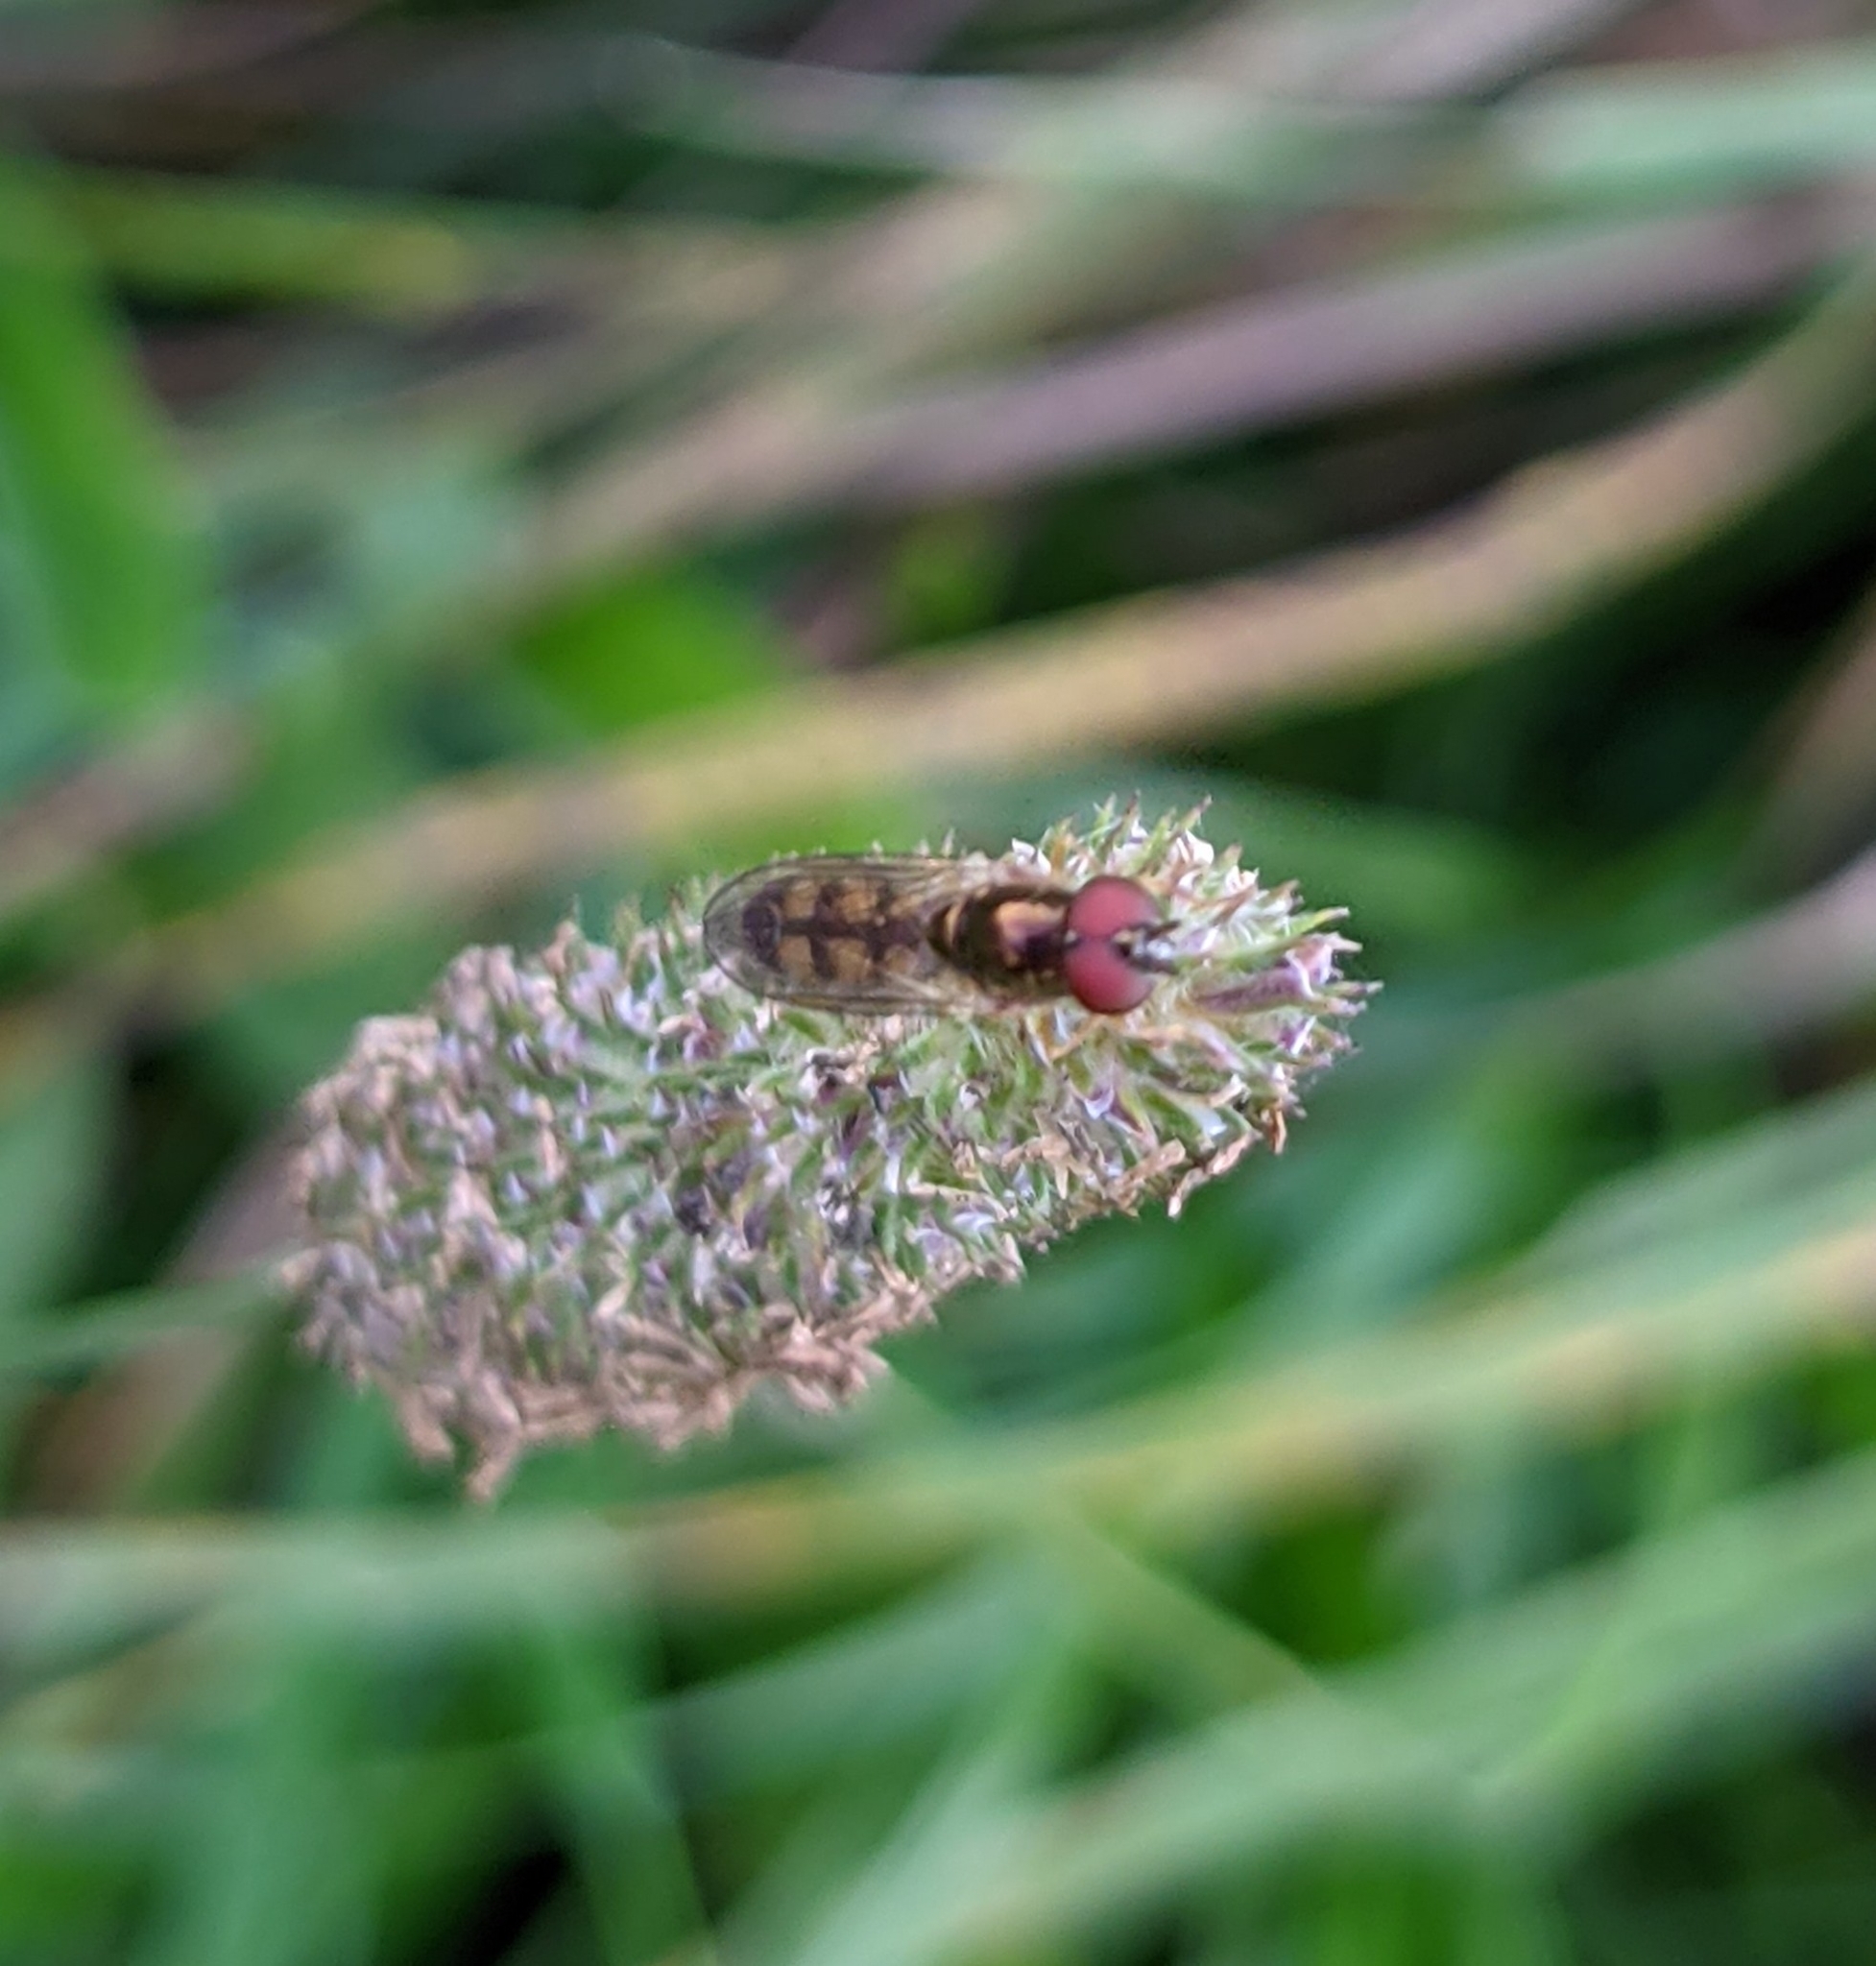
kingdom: Animalia
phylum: Arthropoda
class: Insecta
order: Diptera
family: Syrphidae
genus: Melanostoma
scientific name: Melanostoma mellina
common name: Hover fly
